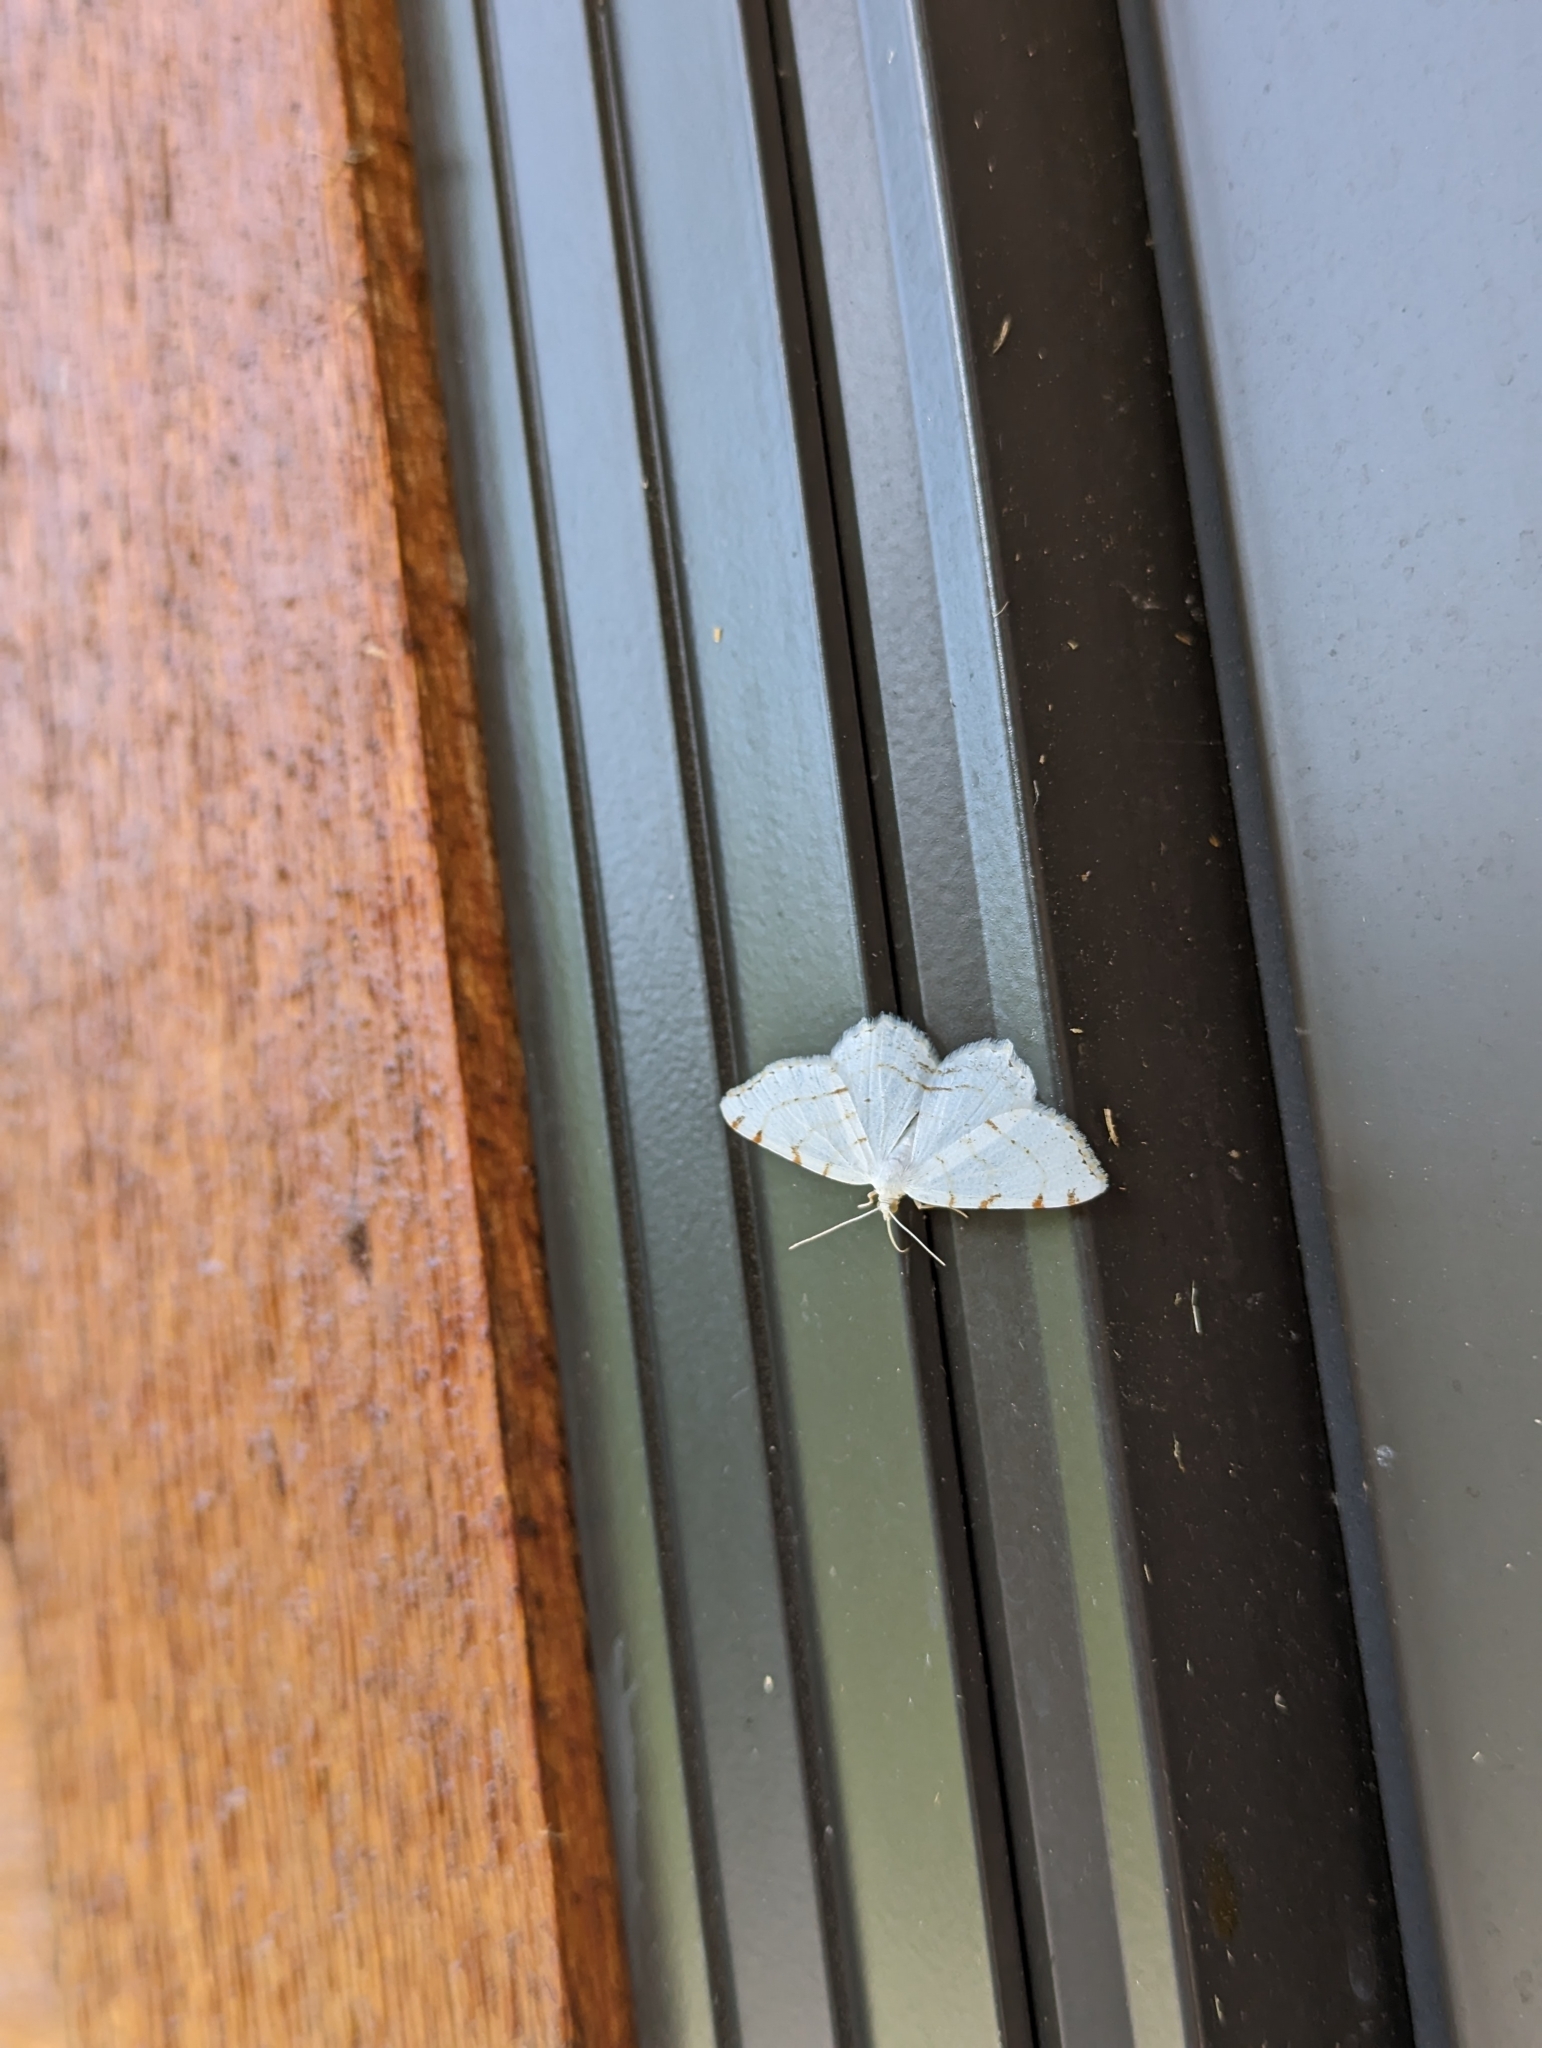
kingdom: Animalia
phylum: Arthropoda
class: Insecta
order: Lepidoptera
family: Geometridae
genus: Macaria
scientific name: Macaria pustularia
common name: Lesser maple spanworm moth
